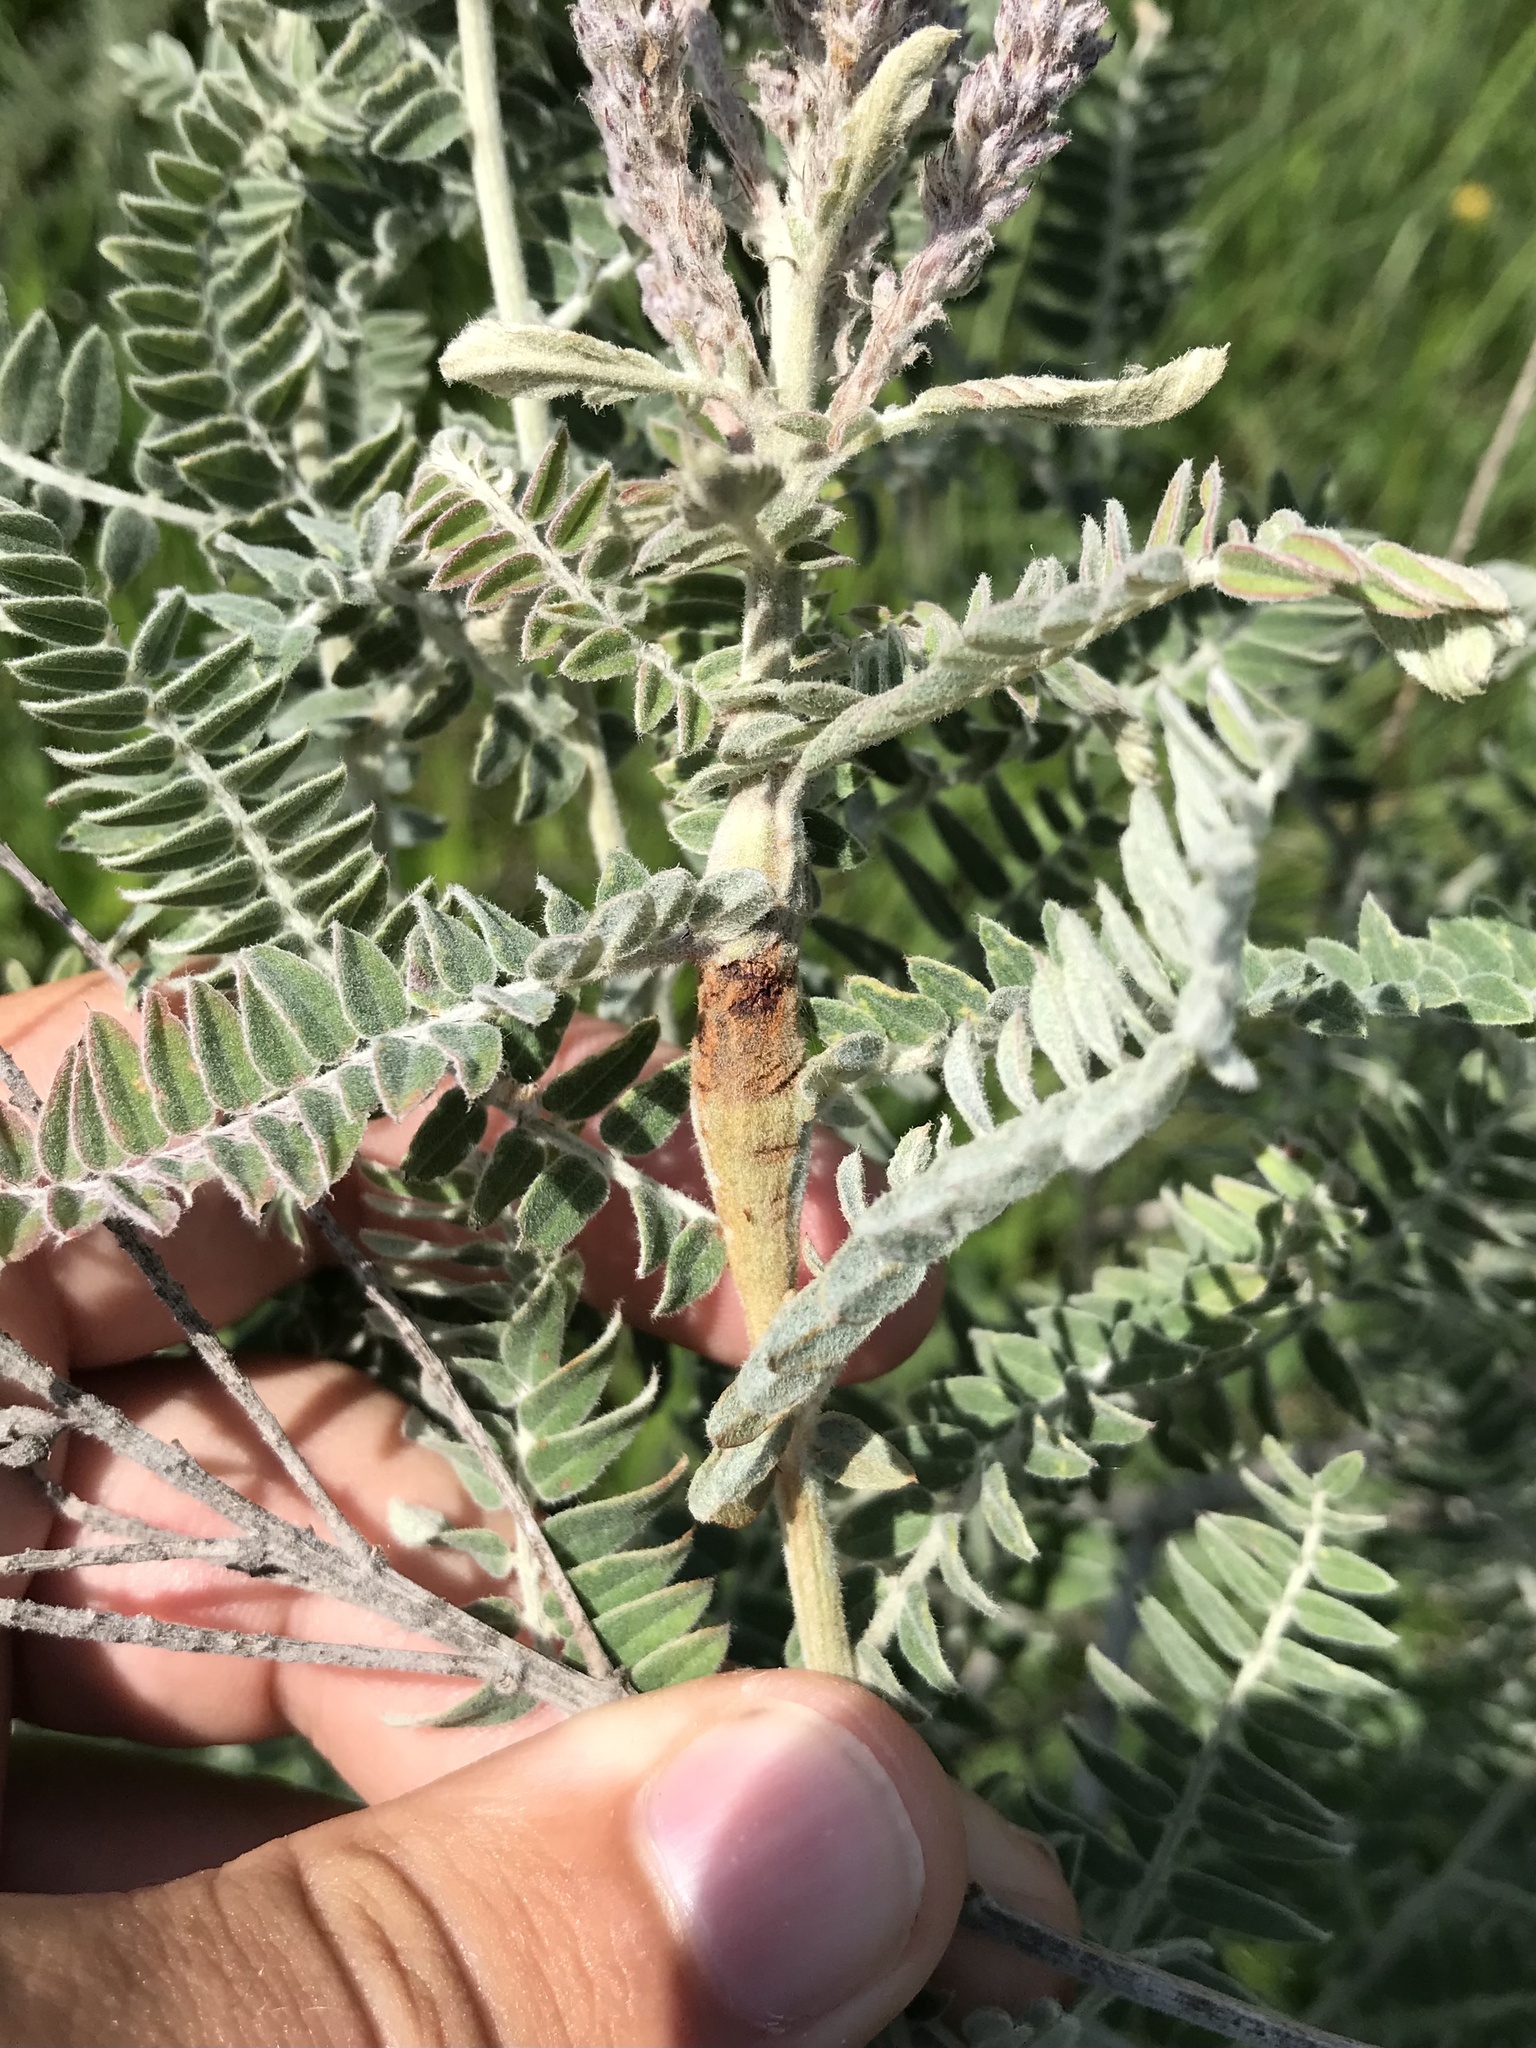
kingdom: Animalia
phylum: Arthropoda
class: Insecta
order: Lepidoptera
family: Cosmopterigidae
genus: Walshia
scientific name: Walshia amorphella
